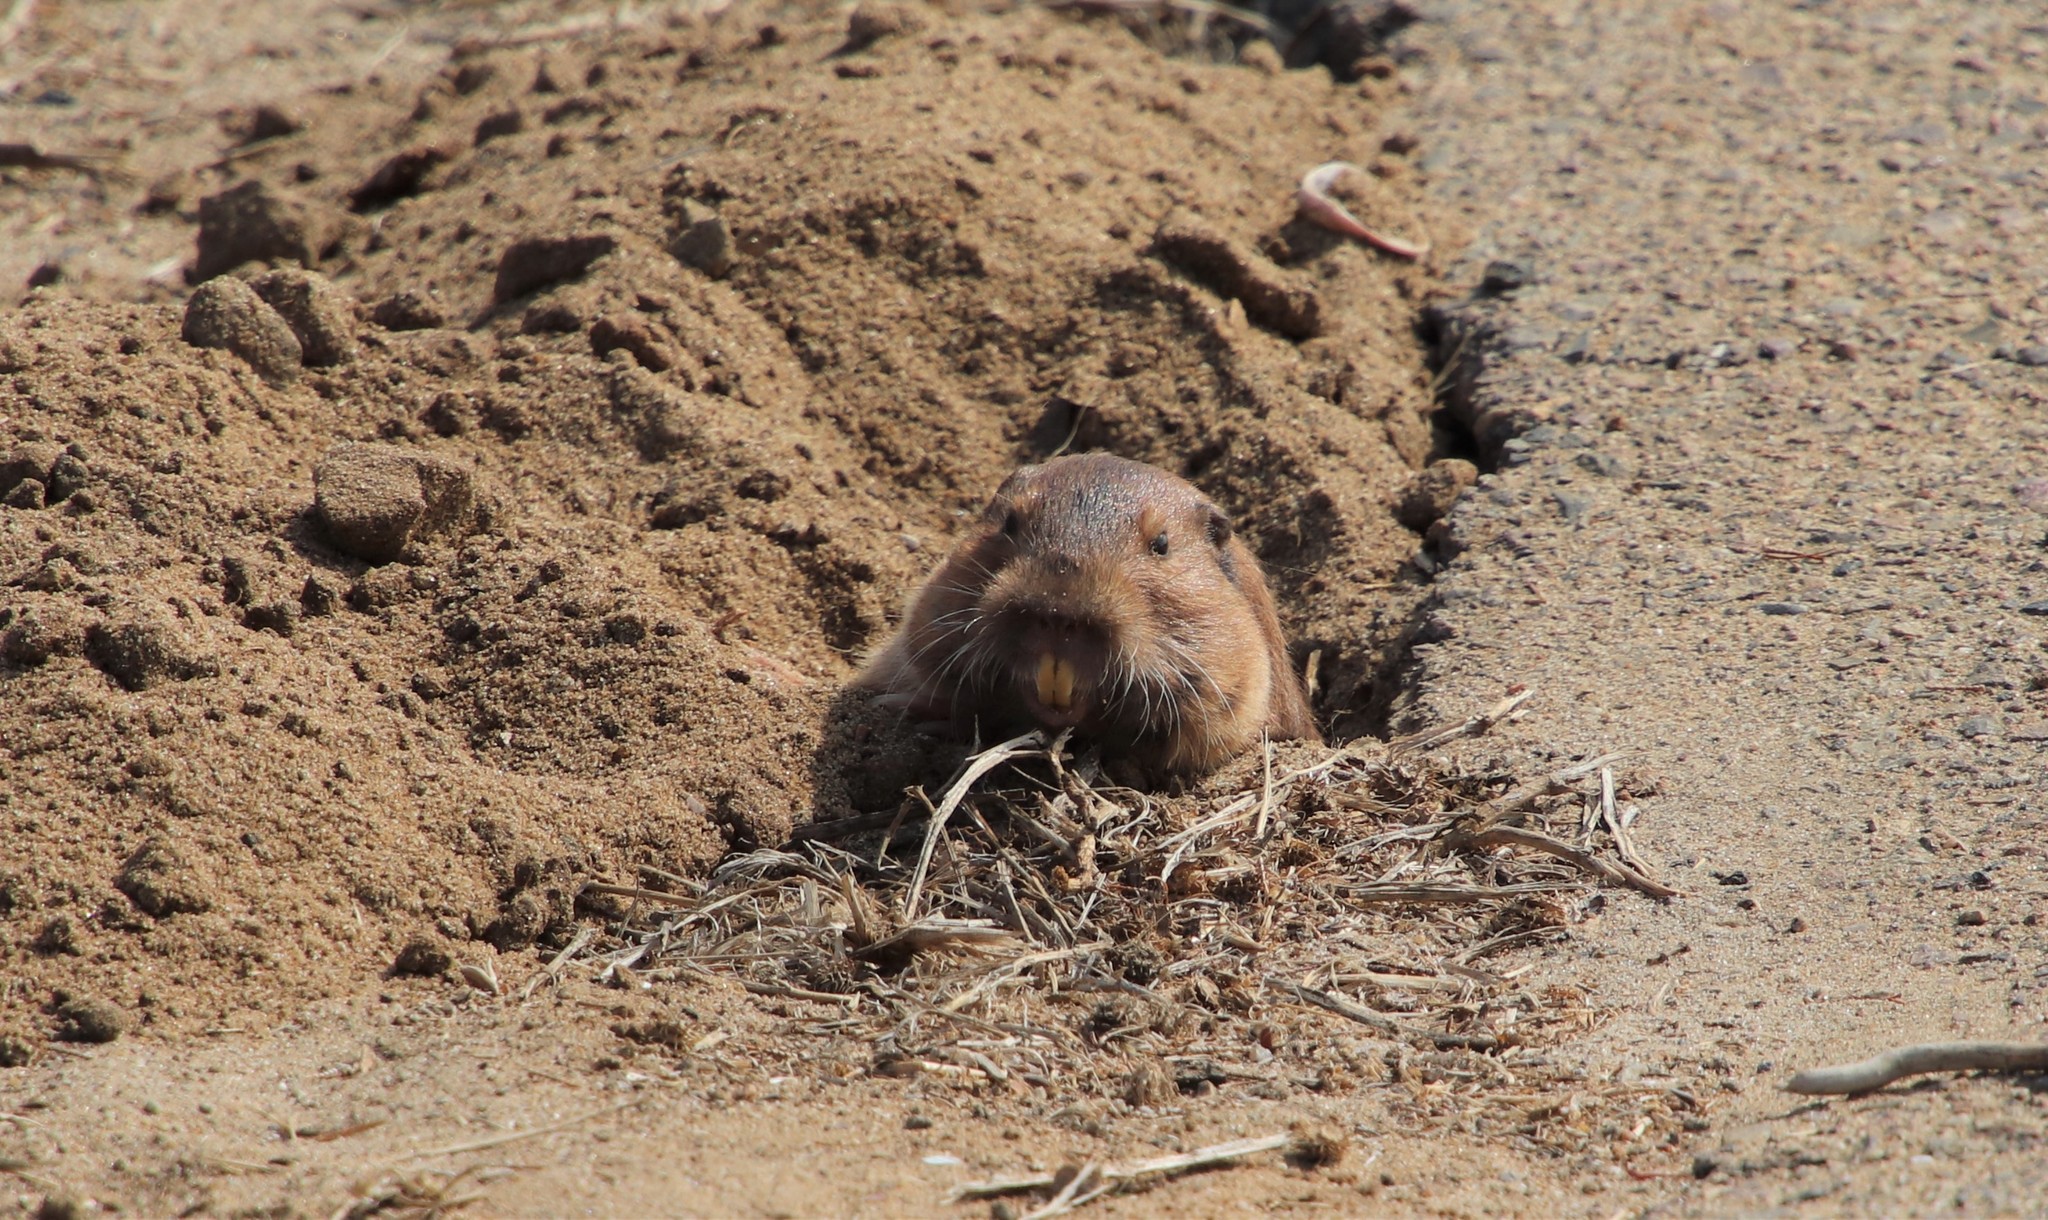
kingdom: Animalia
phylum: Chordata
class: Mammalia
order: Rodentia
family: Geomyidae
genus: Thomomys
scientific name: Thomomys bottae
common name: Botta's pocket gopher
